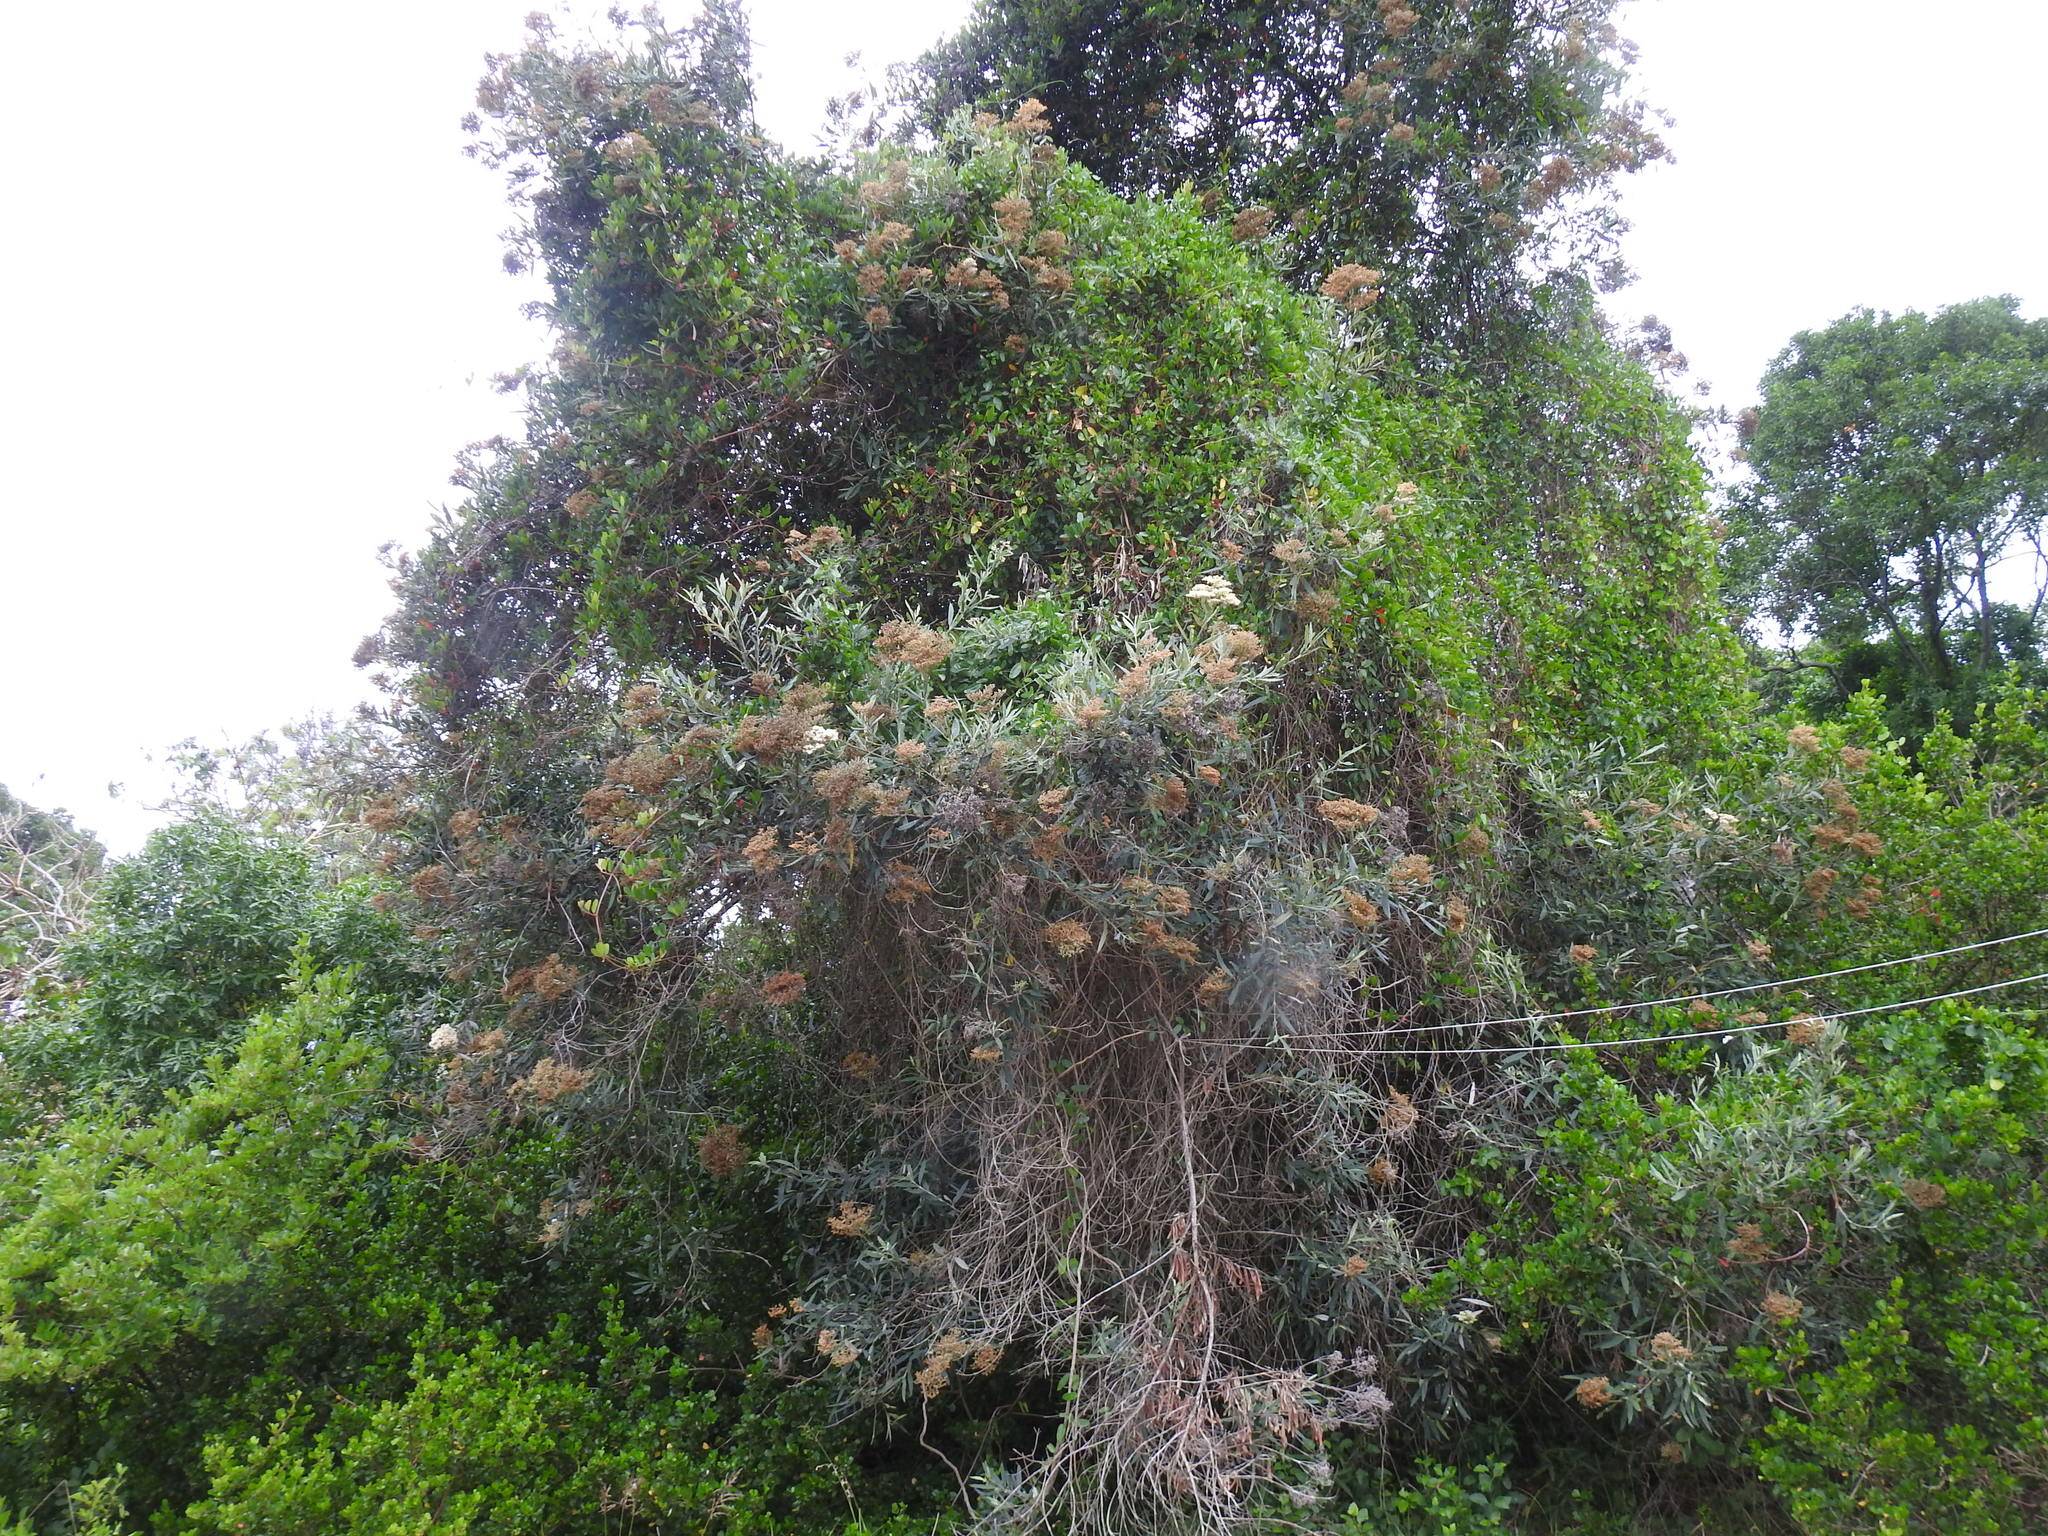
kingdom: Plantae
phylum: Tracheophyta
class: Magnoliopsida
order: Lamiales
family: Scrophulariaceae
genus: Buddleja
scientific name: Buddleja saligna
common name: False olive
